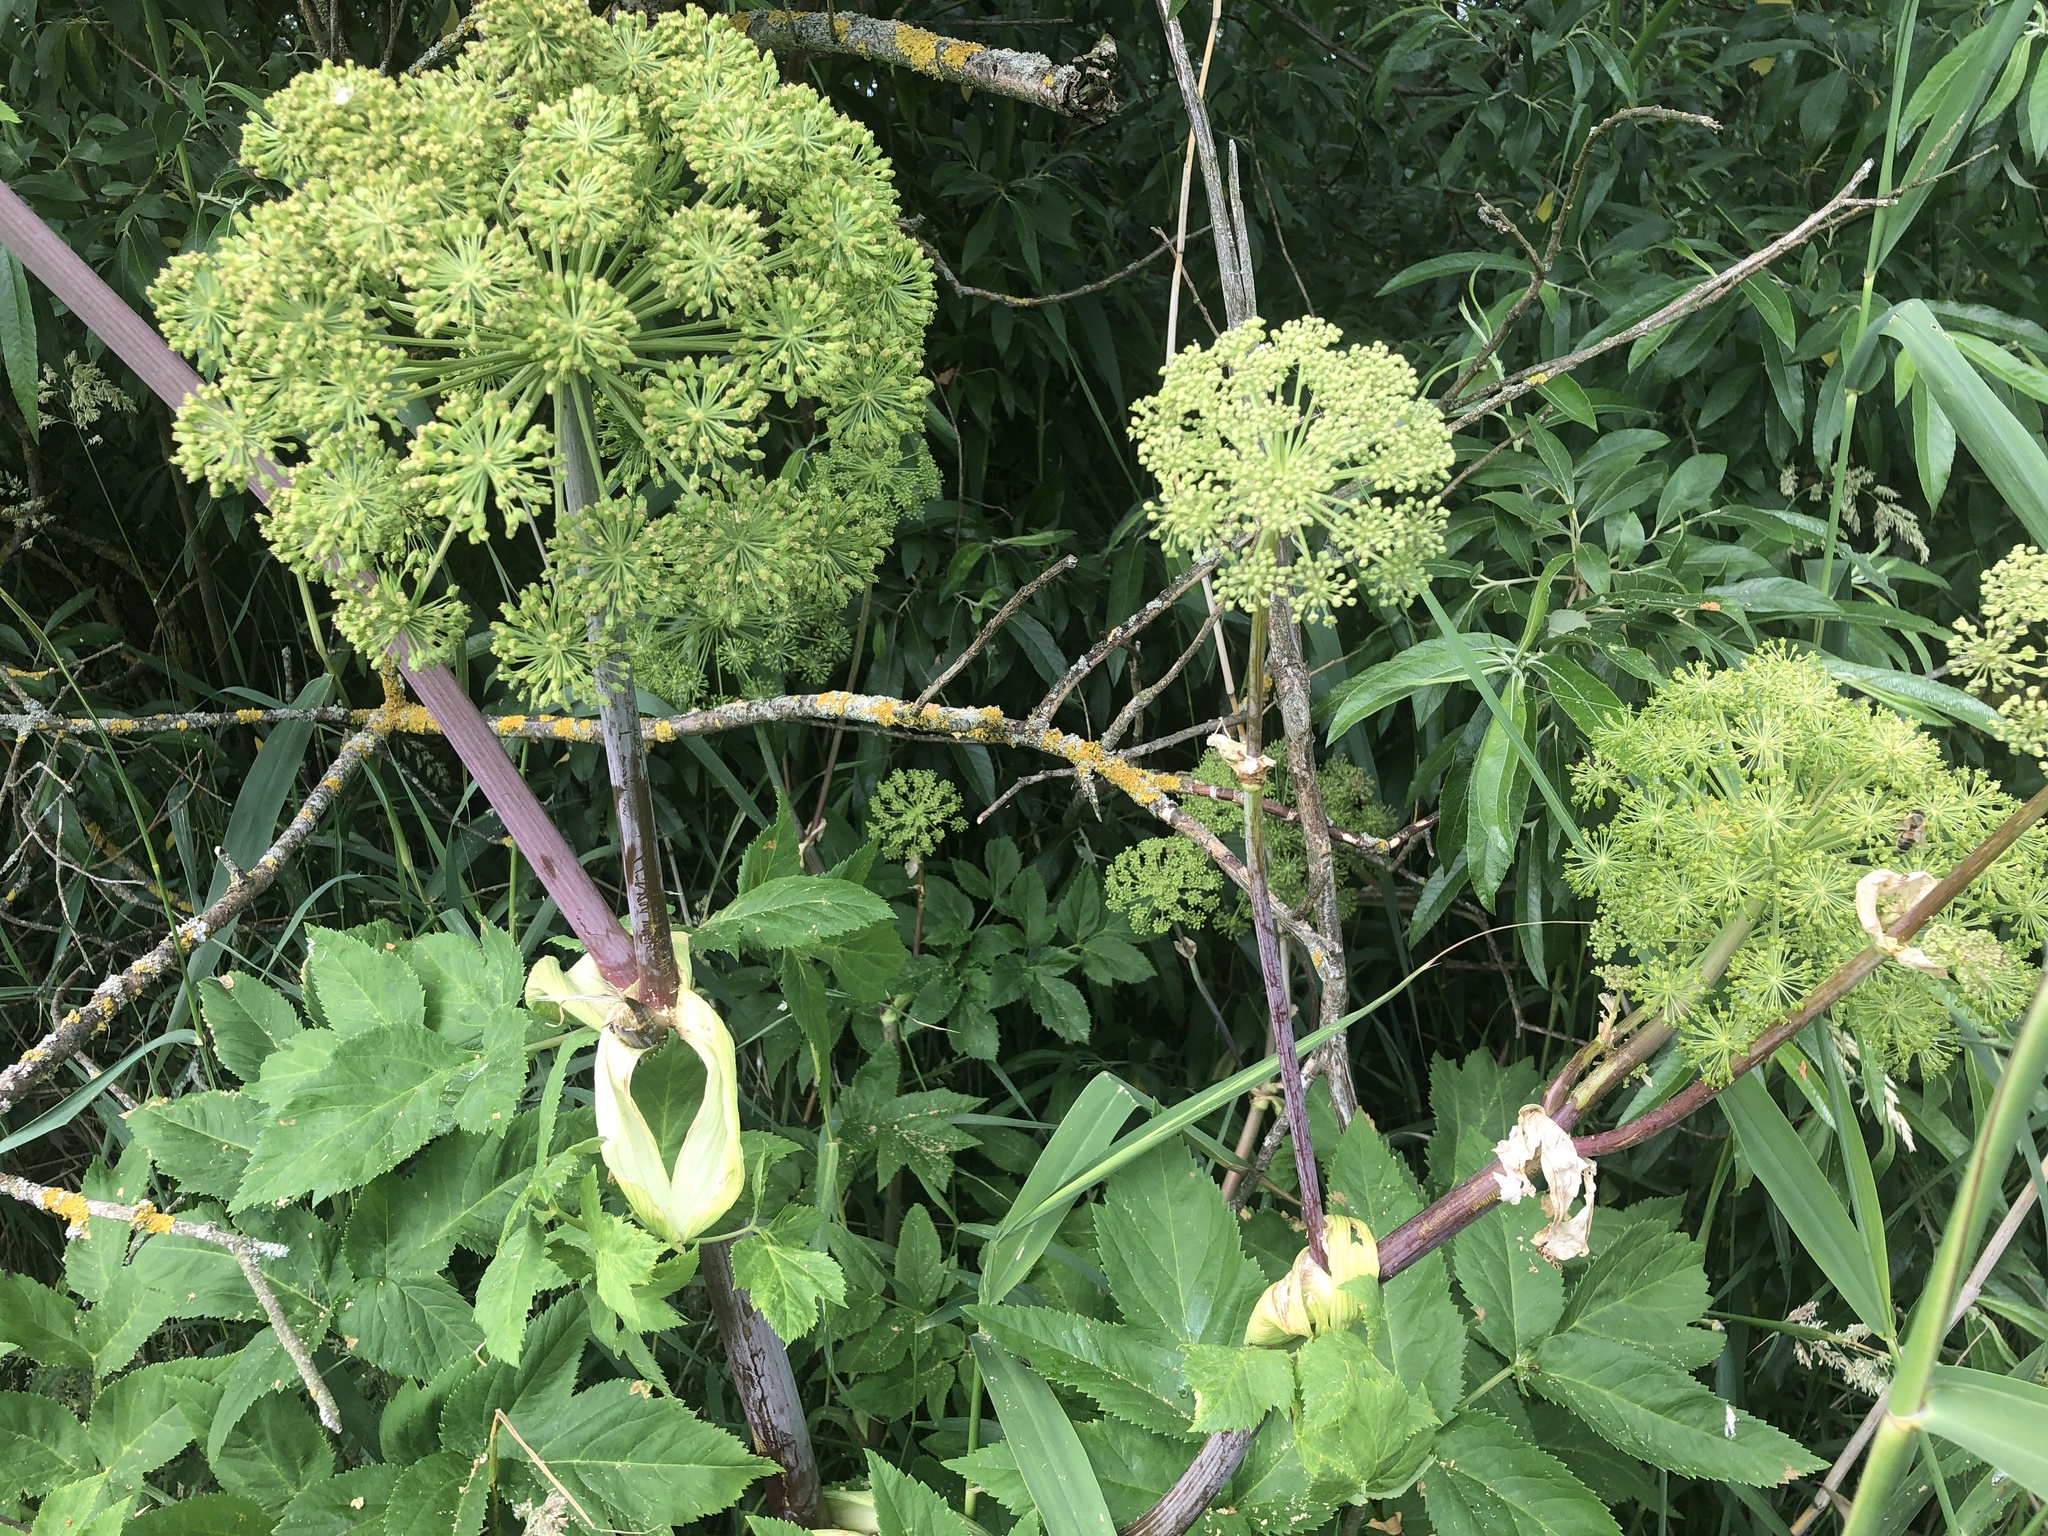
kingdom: Plantae
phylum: Tracheophyta
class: Magnoliopsida
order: Apiales
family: Apiaceae
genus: Angelica
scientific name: Angelica archangelica
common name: Garden angelica
